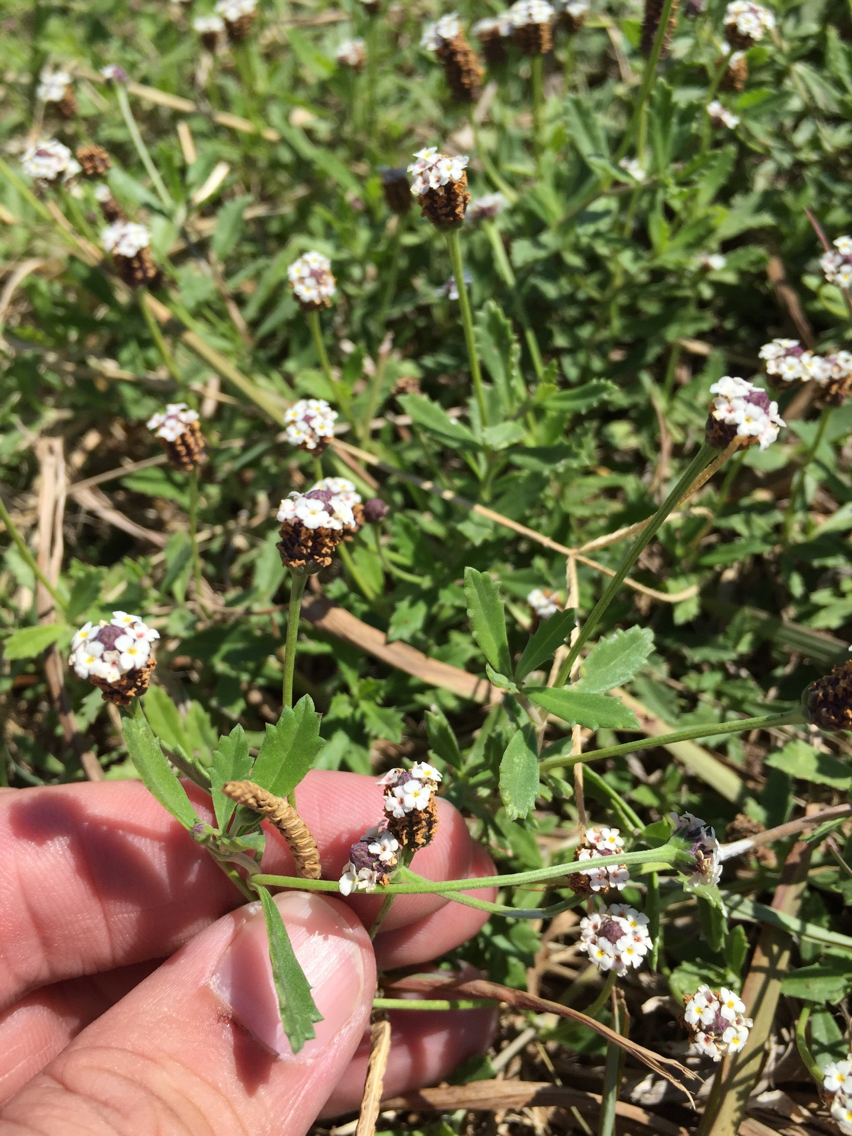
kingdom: Plantae
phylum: Tracheophyta
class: Magnoliopsida
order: Lamiales
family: Verbenaceae
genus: Phyla
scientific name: Phyla nodiflora
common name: Frogfruit
